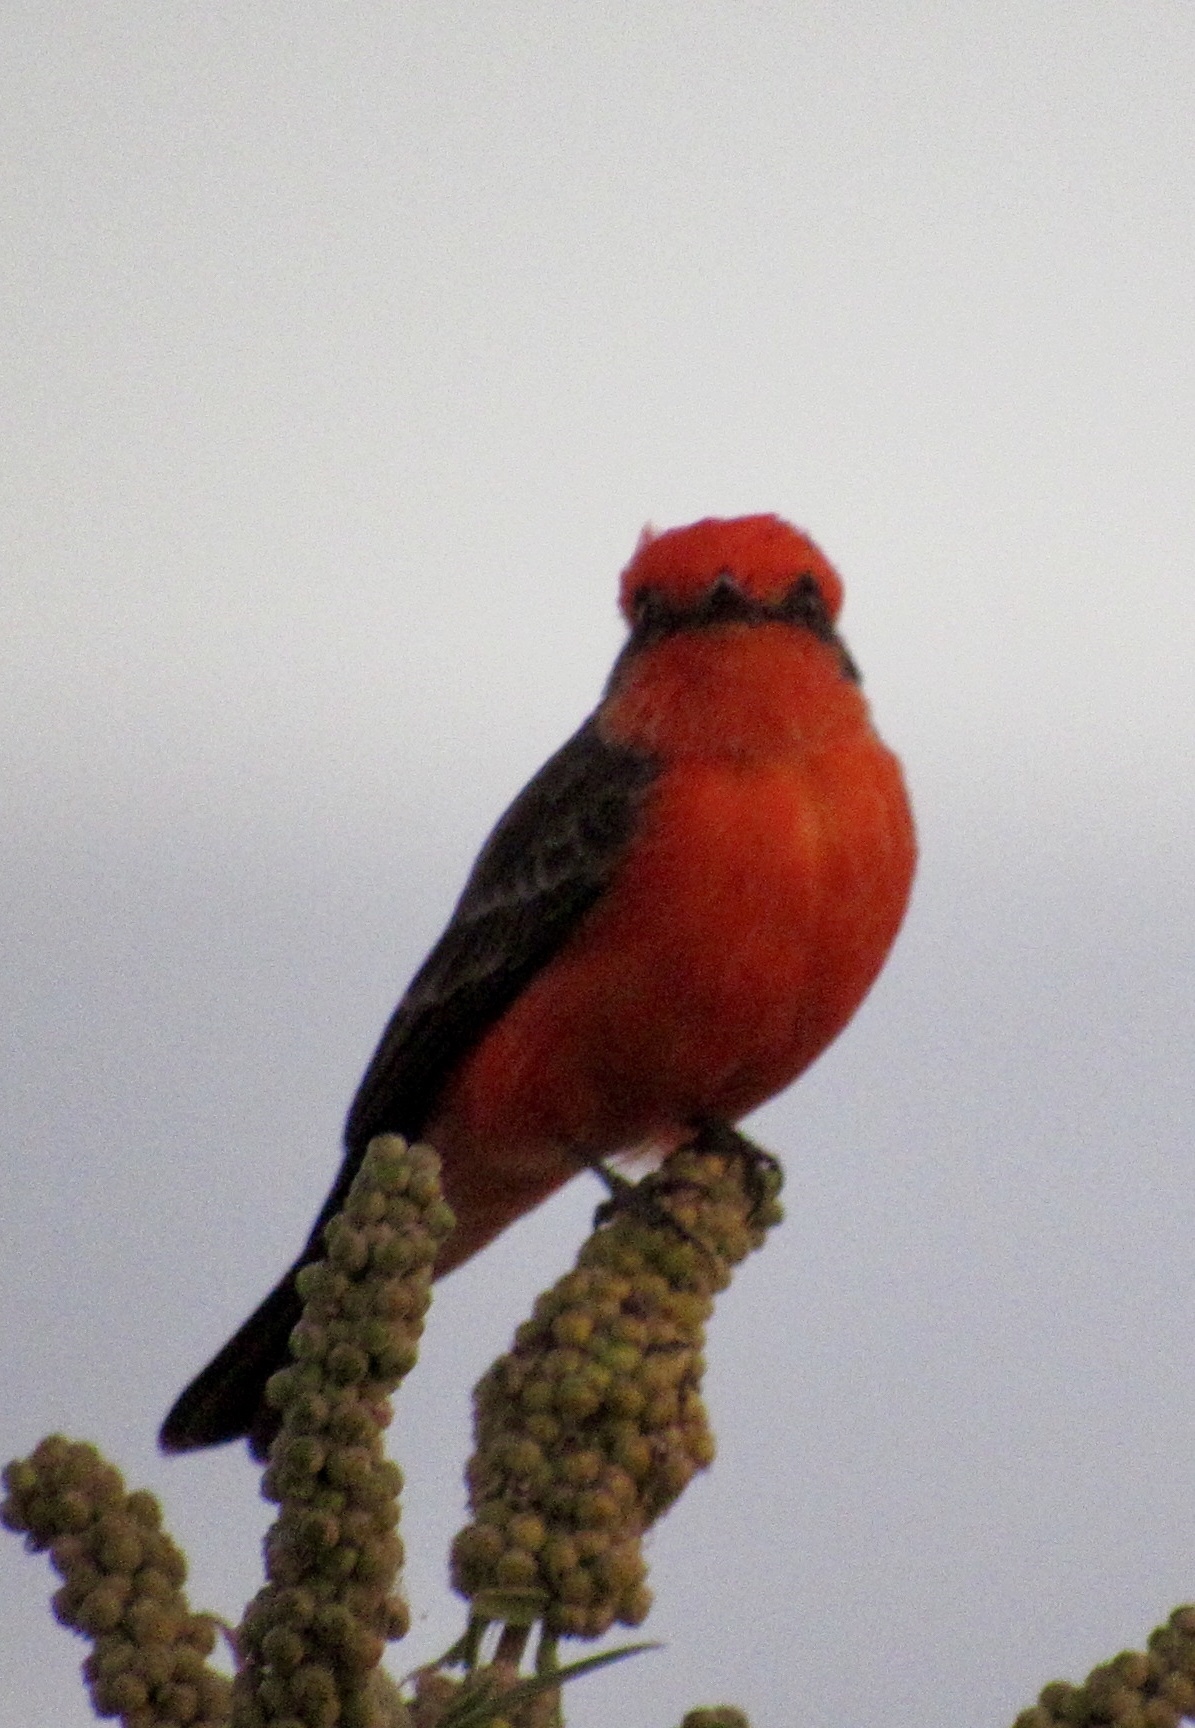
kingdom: Animalia
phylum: Chordata
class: Aves
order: Passeriformes
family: Tyrannidae
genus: Pyrocephalus
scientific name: Pyrocephalus rubinus
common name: Vermilion flycatcher
